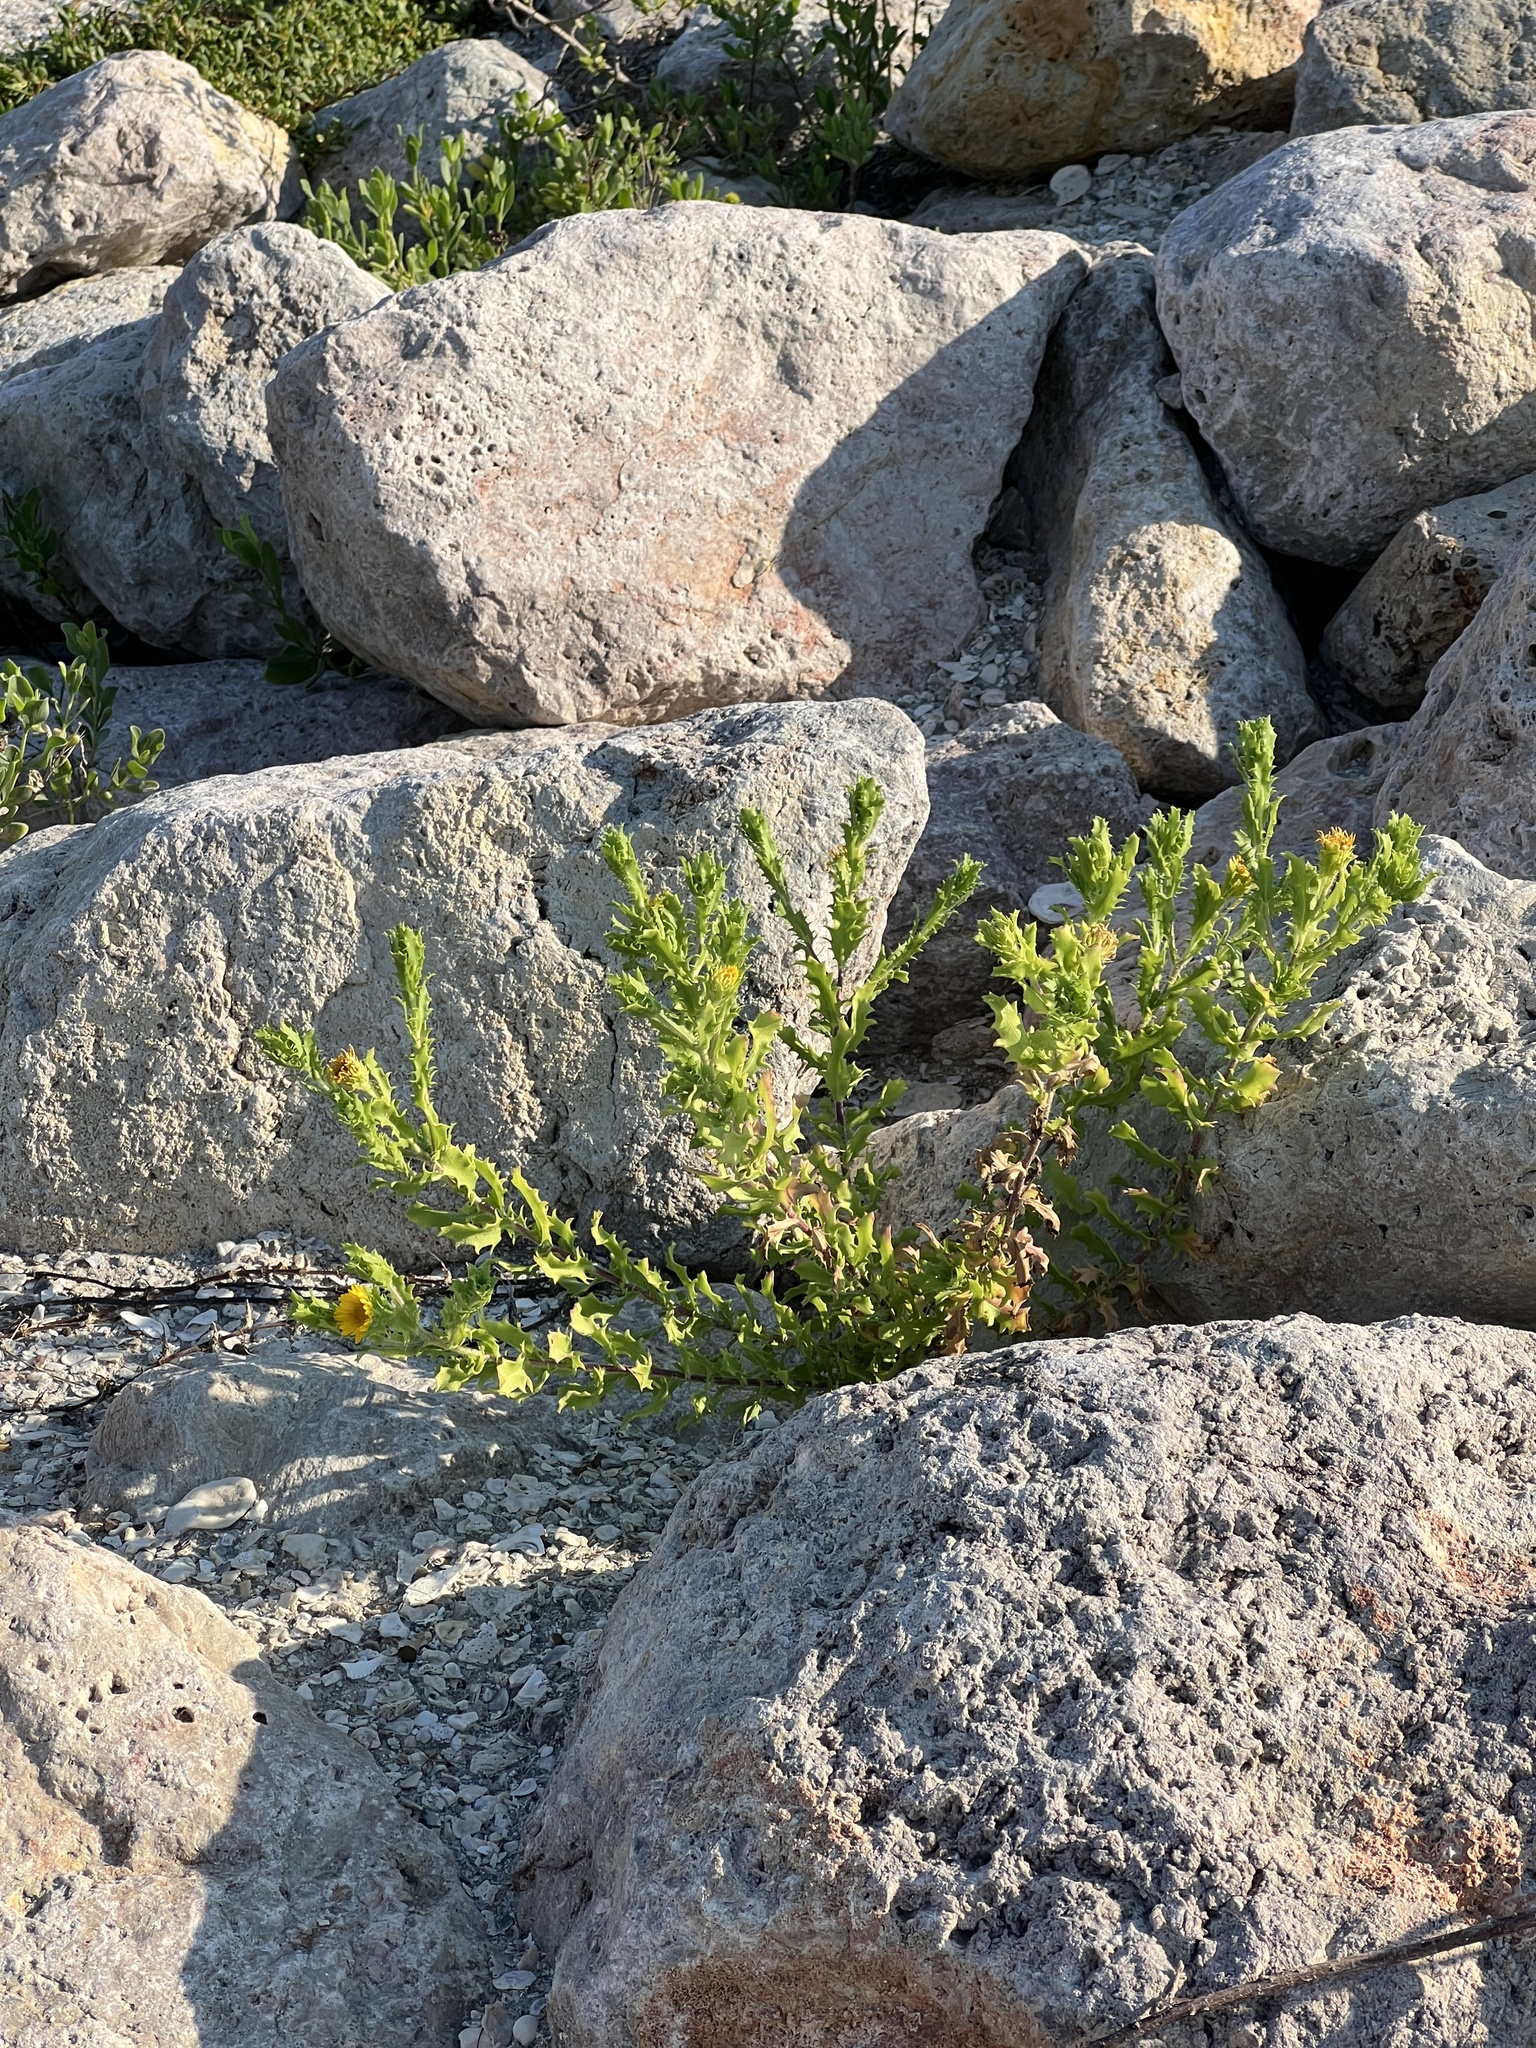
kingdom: Plantae
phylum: Tracheophyta
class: Magnoliopsida
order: Asterales
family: Asteraceae
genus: Rayjacksonia
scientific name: Rayjacksonia phyllocephala
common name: Gulf coast camphor daisy
